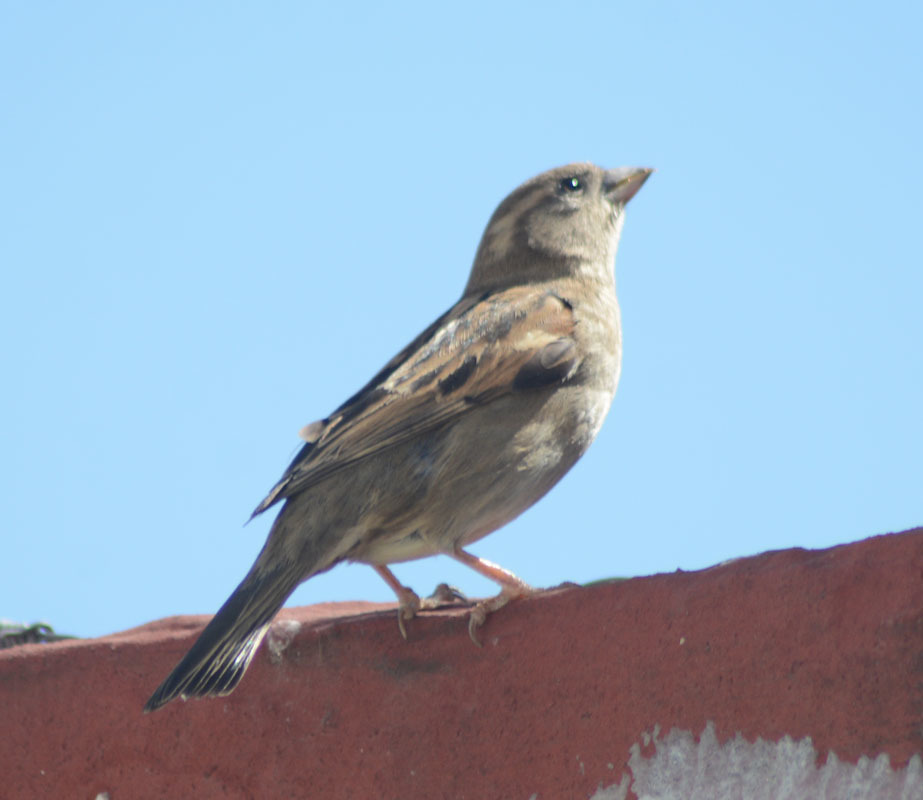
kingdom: Animalia
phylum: Chordata
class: Aves
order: Passeriformes
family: Passeridae
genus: Passer
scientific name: Passer domesticus
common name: House sparrow
